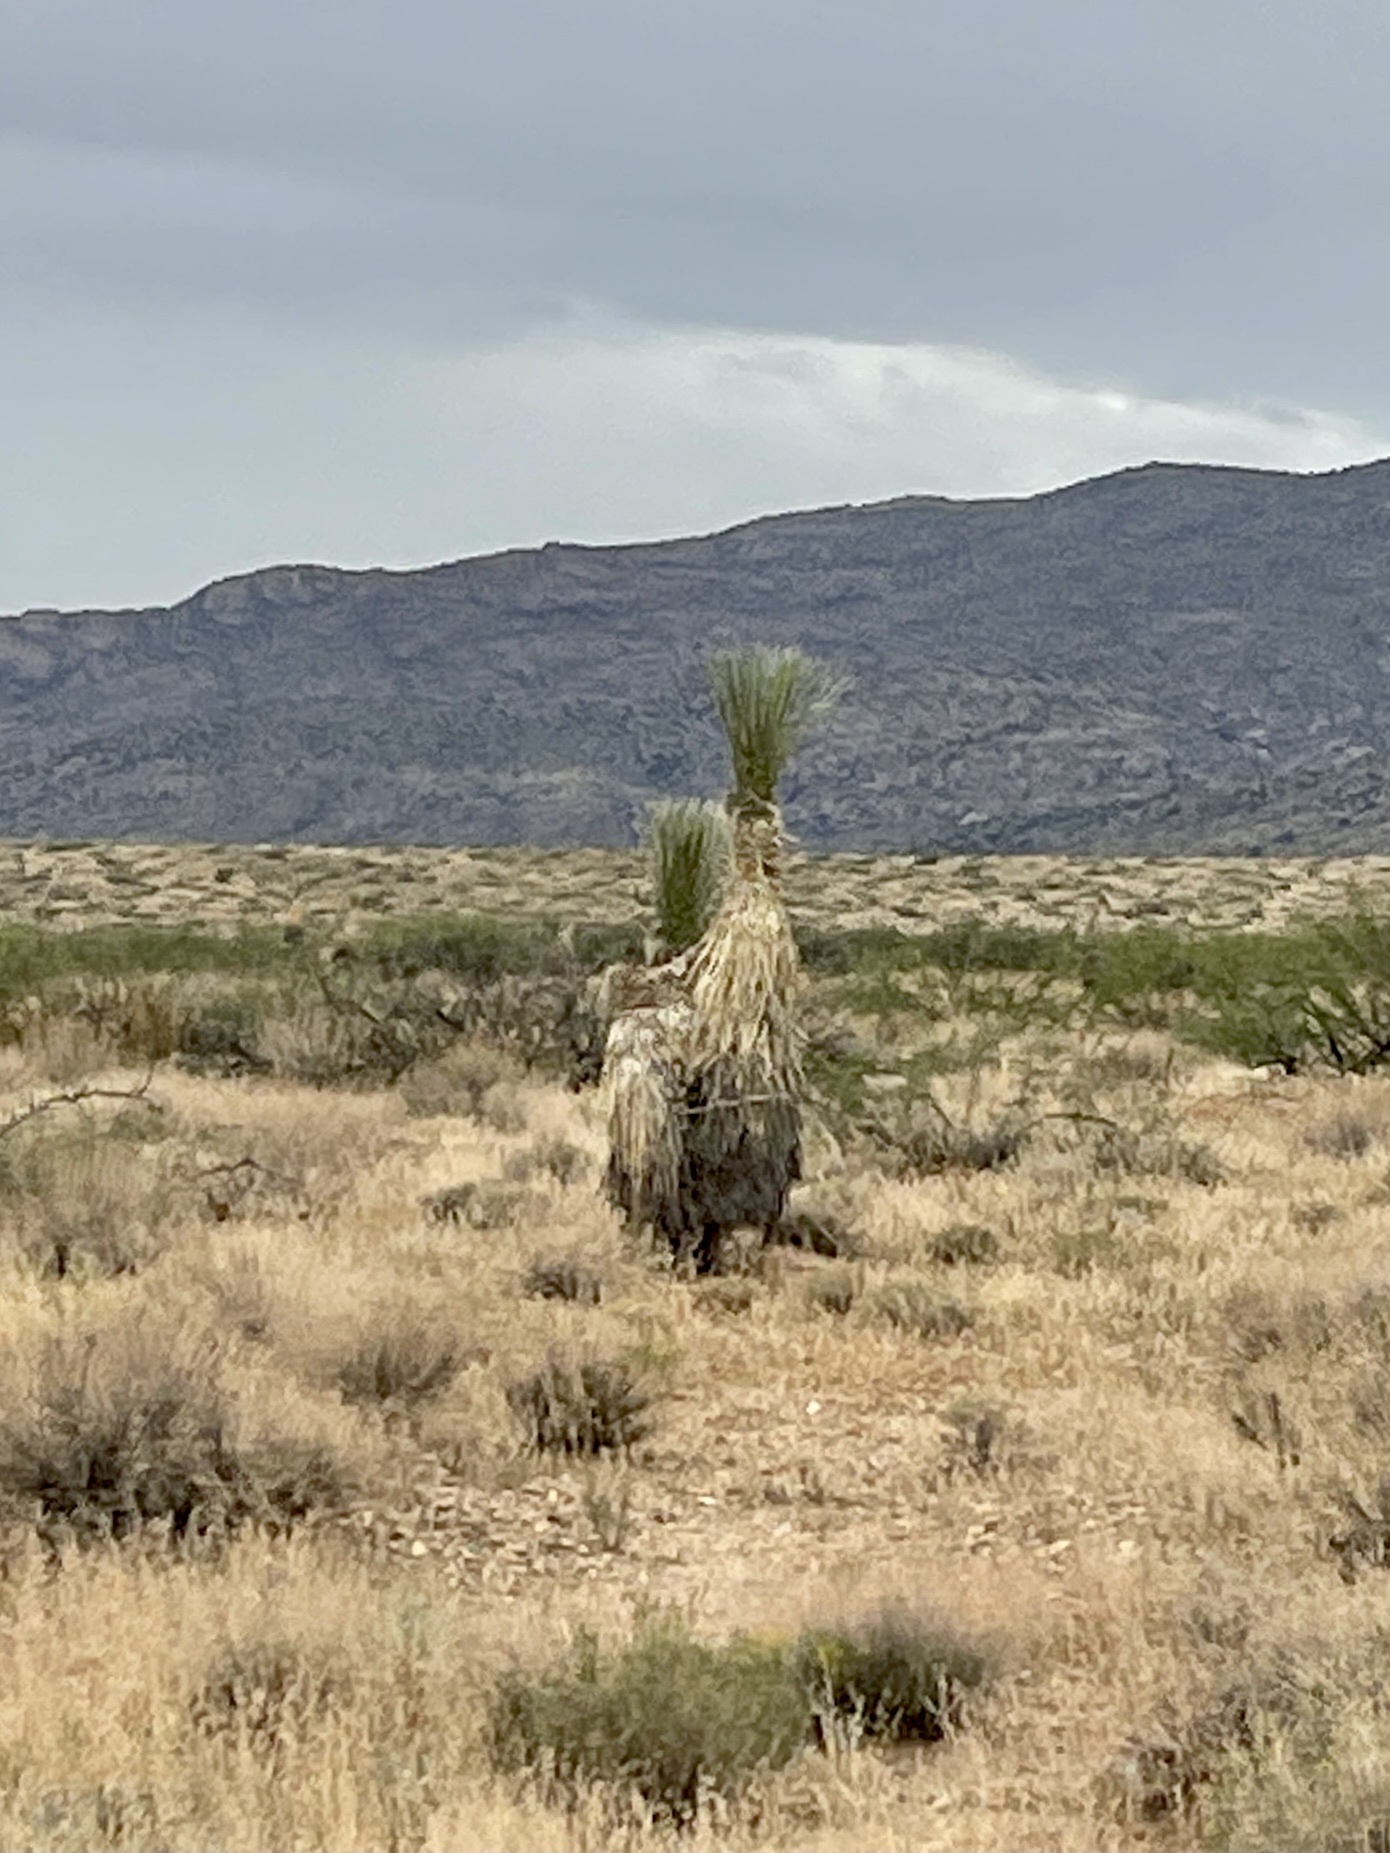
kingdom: Plantae
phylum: Tracheophyta
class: Liliopsida
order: Asparagales
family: Asparagaceae
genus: Yucca
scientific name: Yucca elata
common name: Palmella
